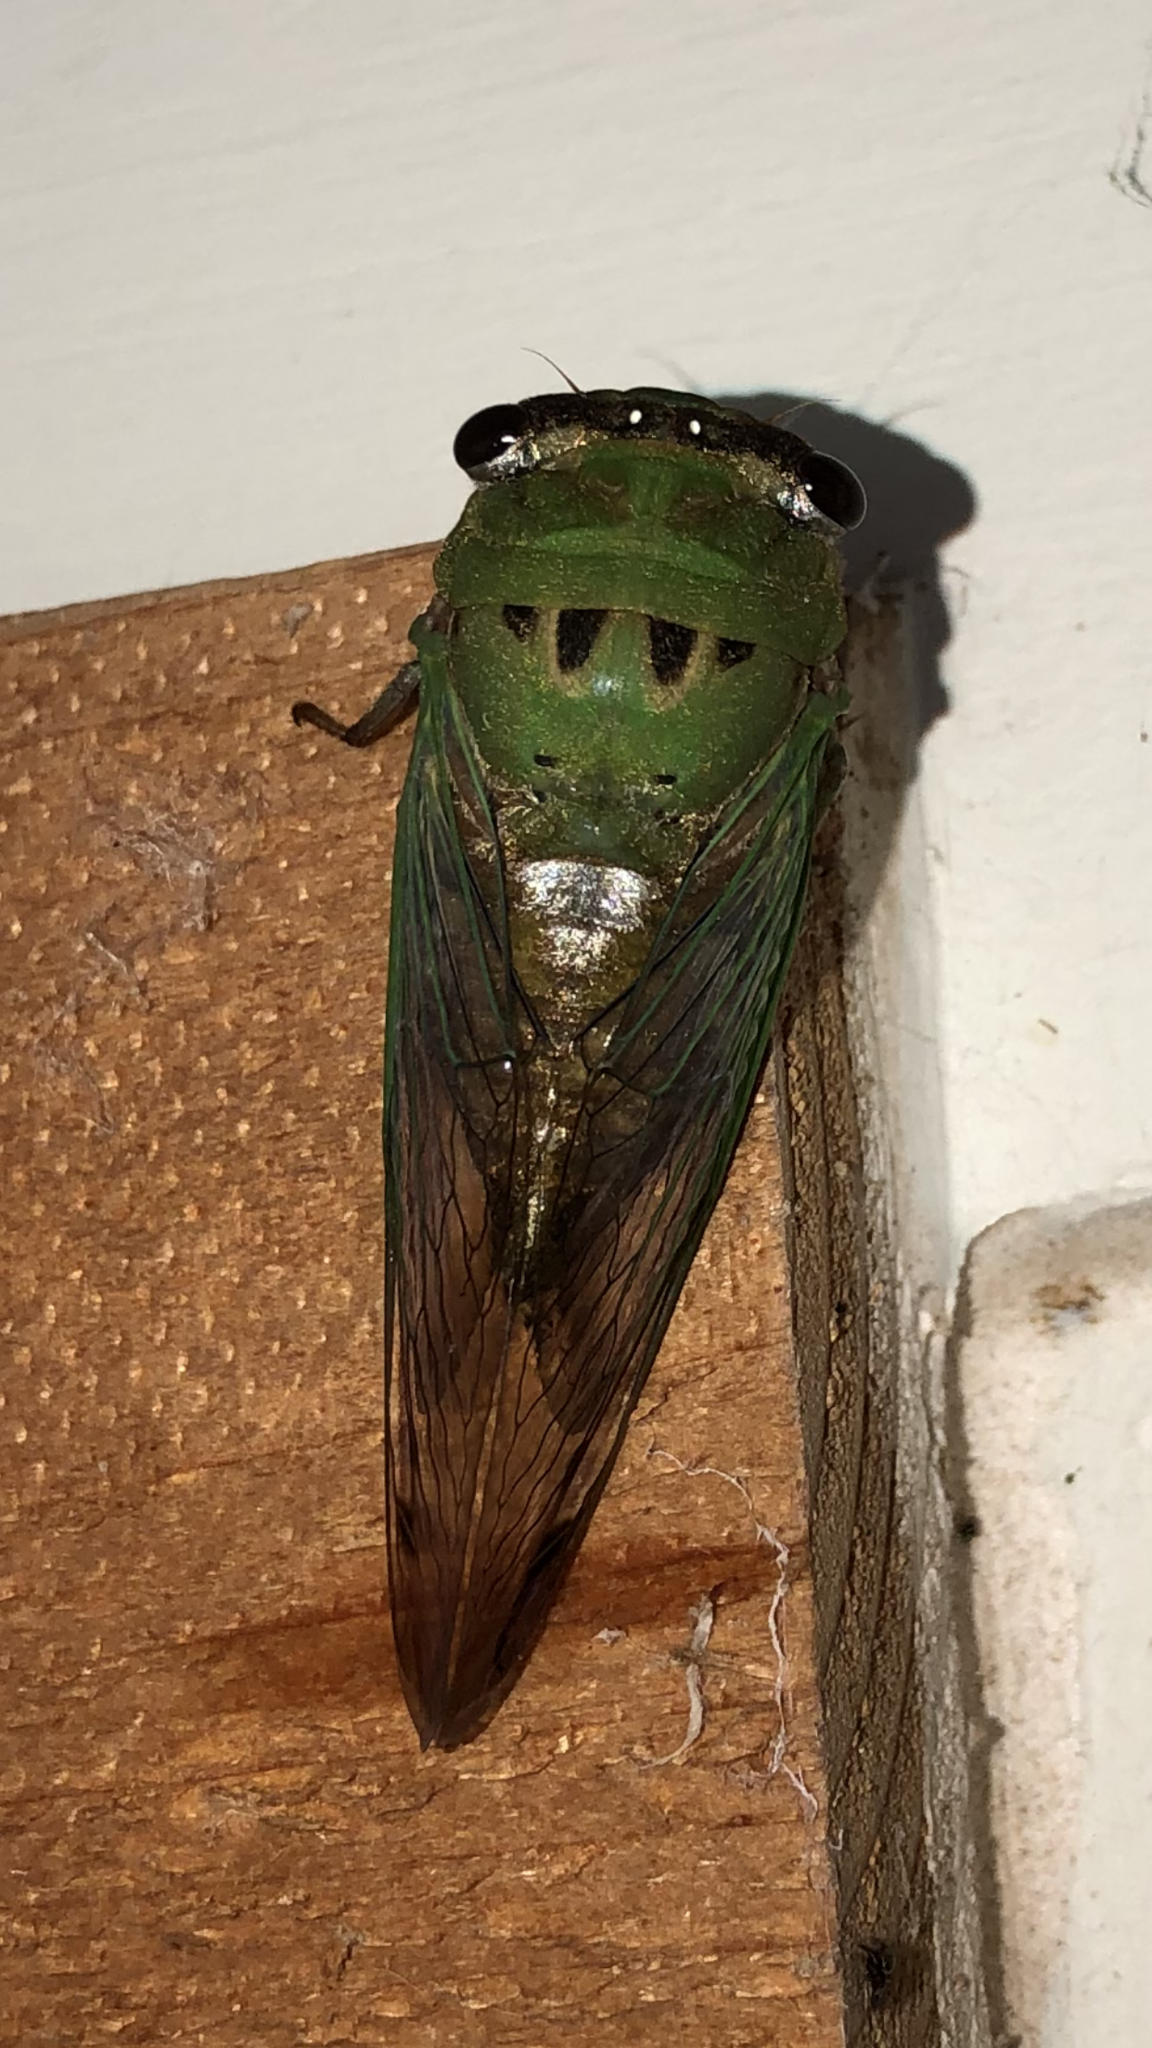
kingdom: Animalia
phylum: Arthropoda
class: Insecta
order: Hemiptera
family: Cicadidae
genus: Neotibicen
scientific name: Neotibicen superbus
